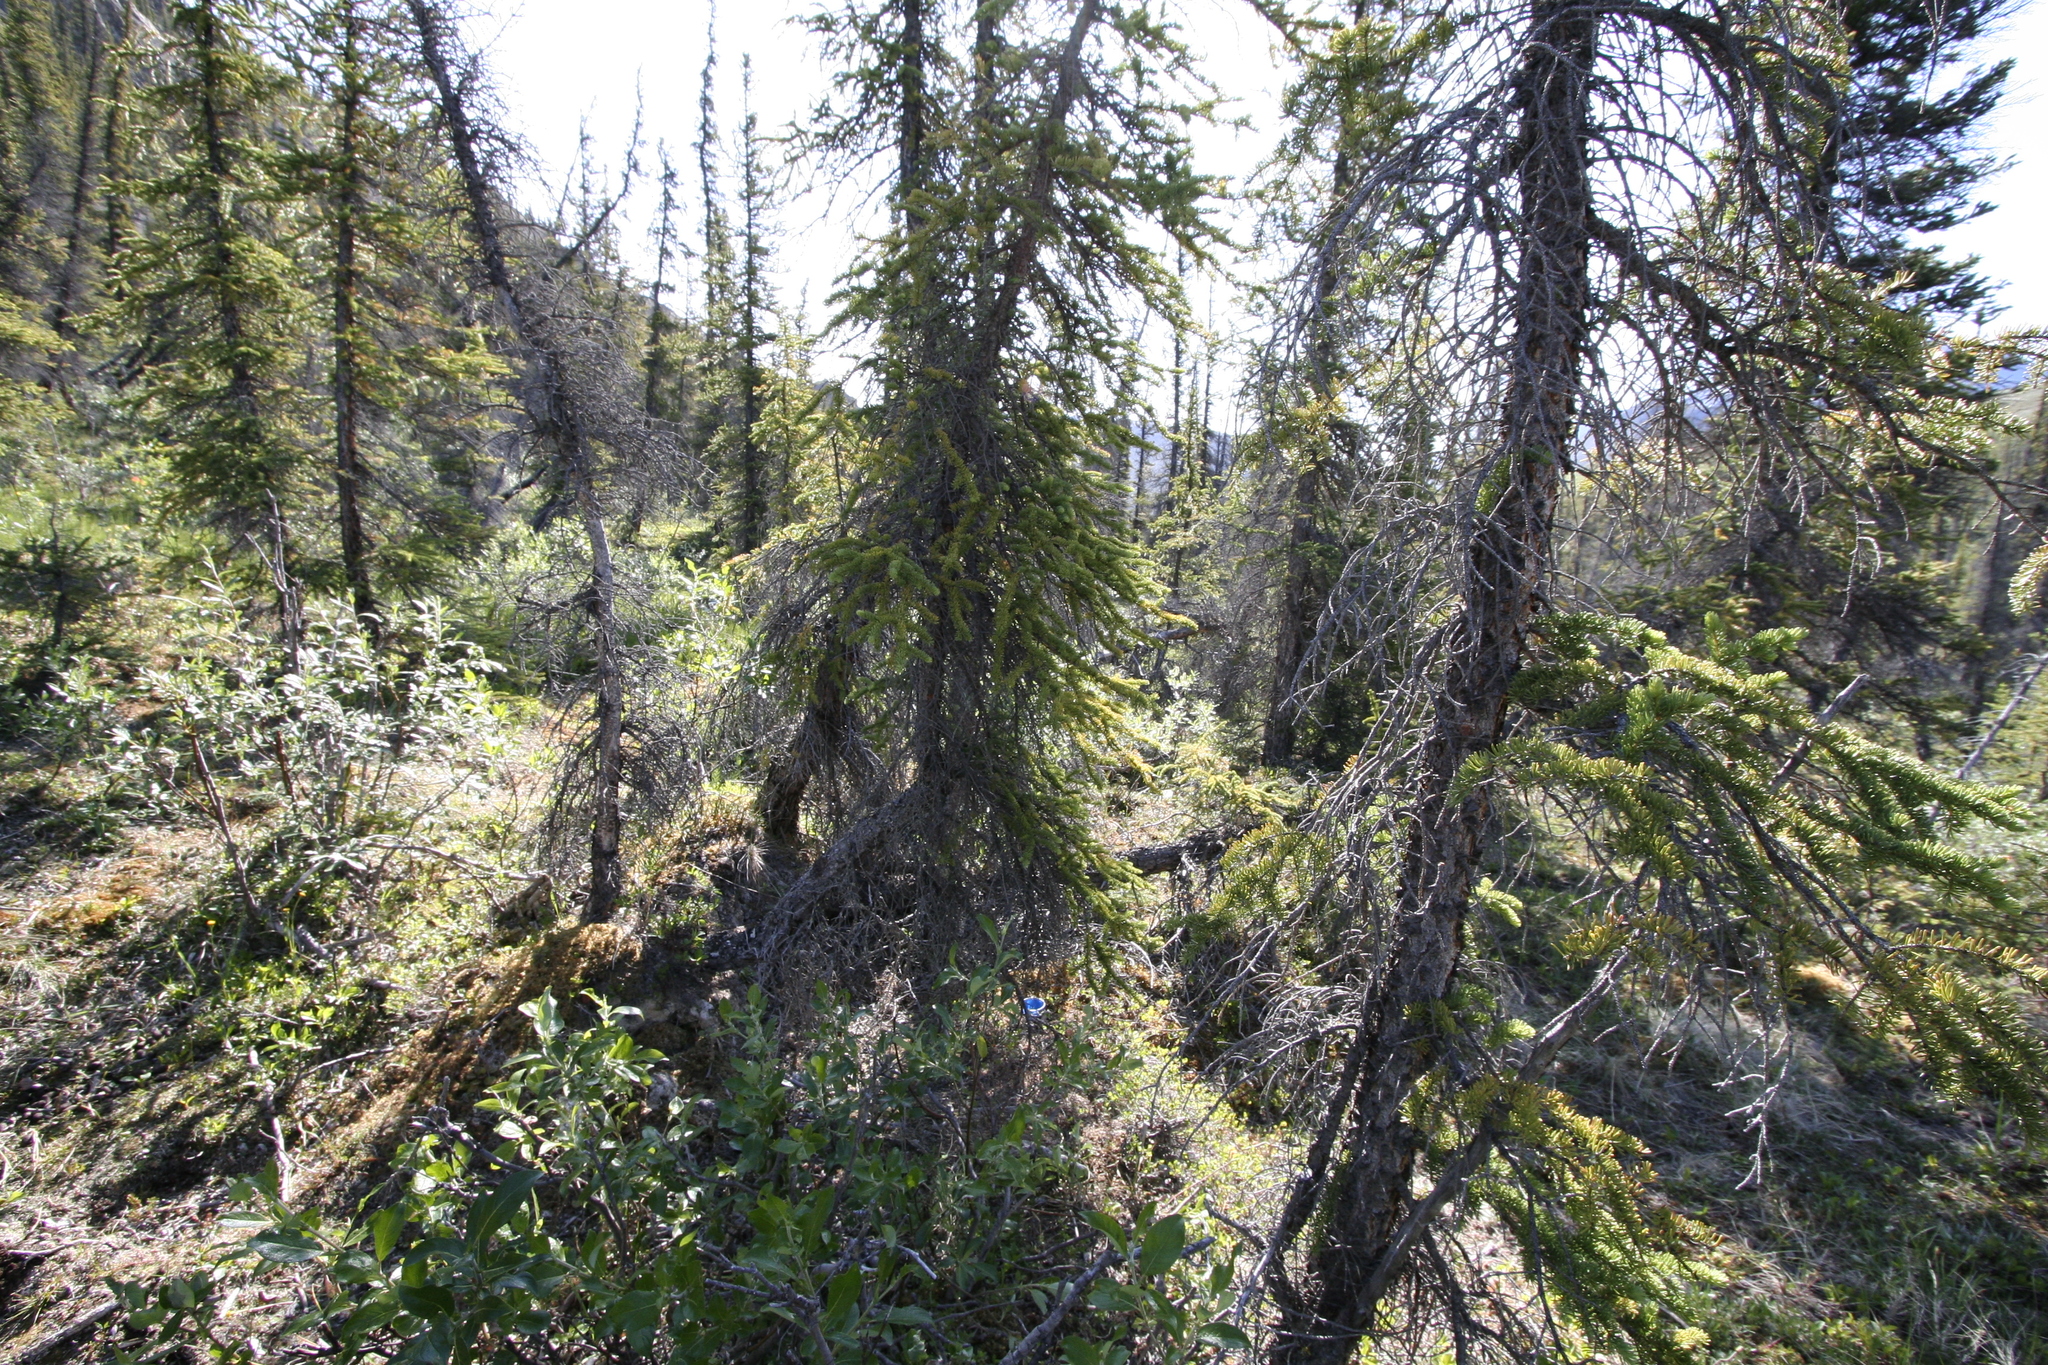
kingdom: Plantae
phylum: Tracheophyta
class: Pinopsida
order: Pinales
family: Pinaceae
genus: Picea
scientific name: Picea glauca
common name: White spruce
